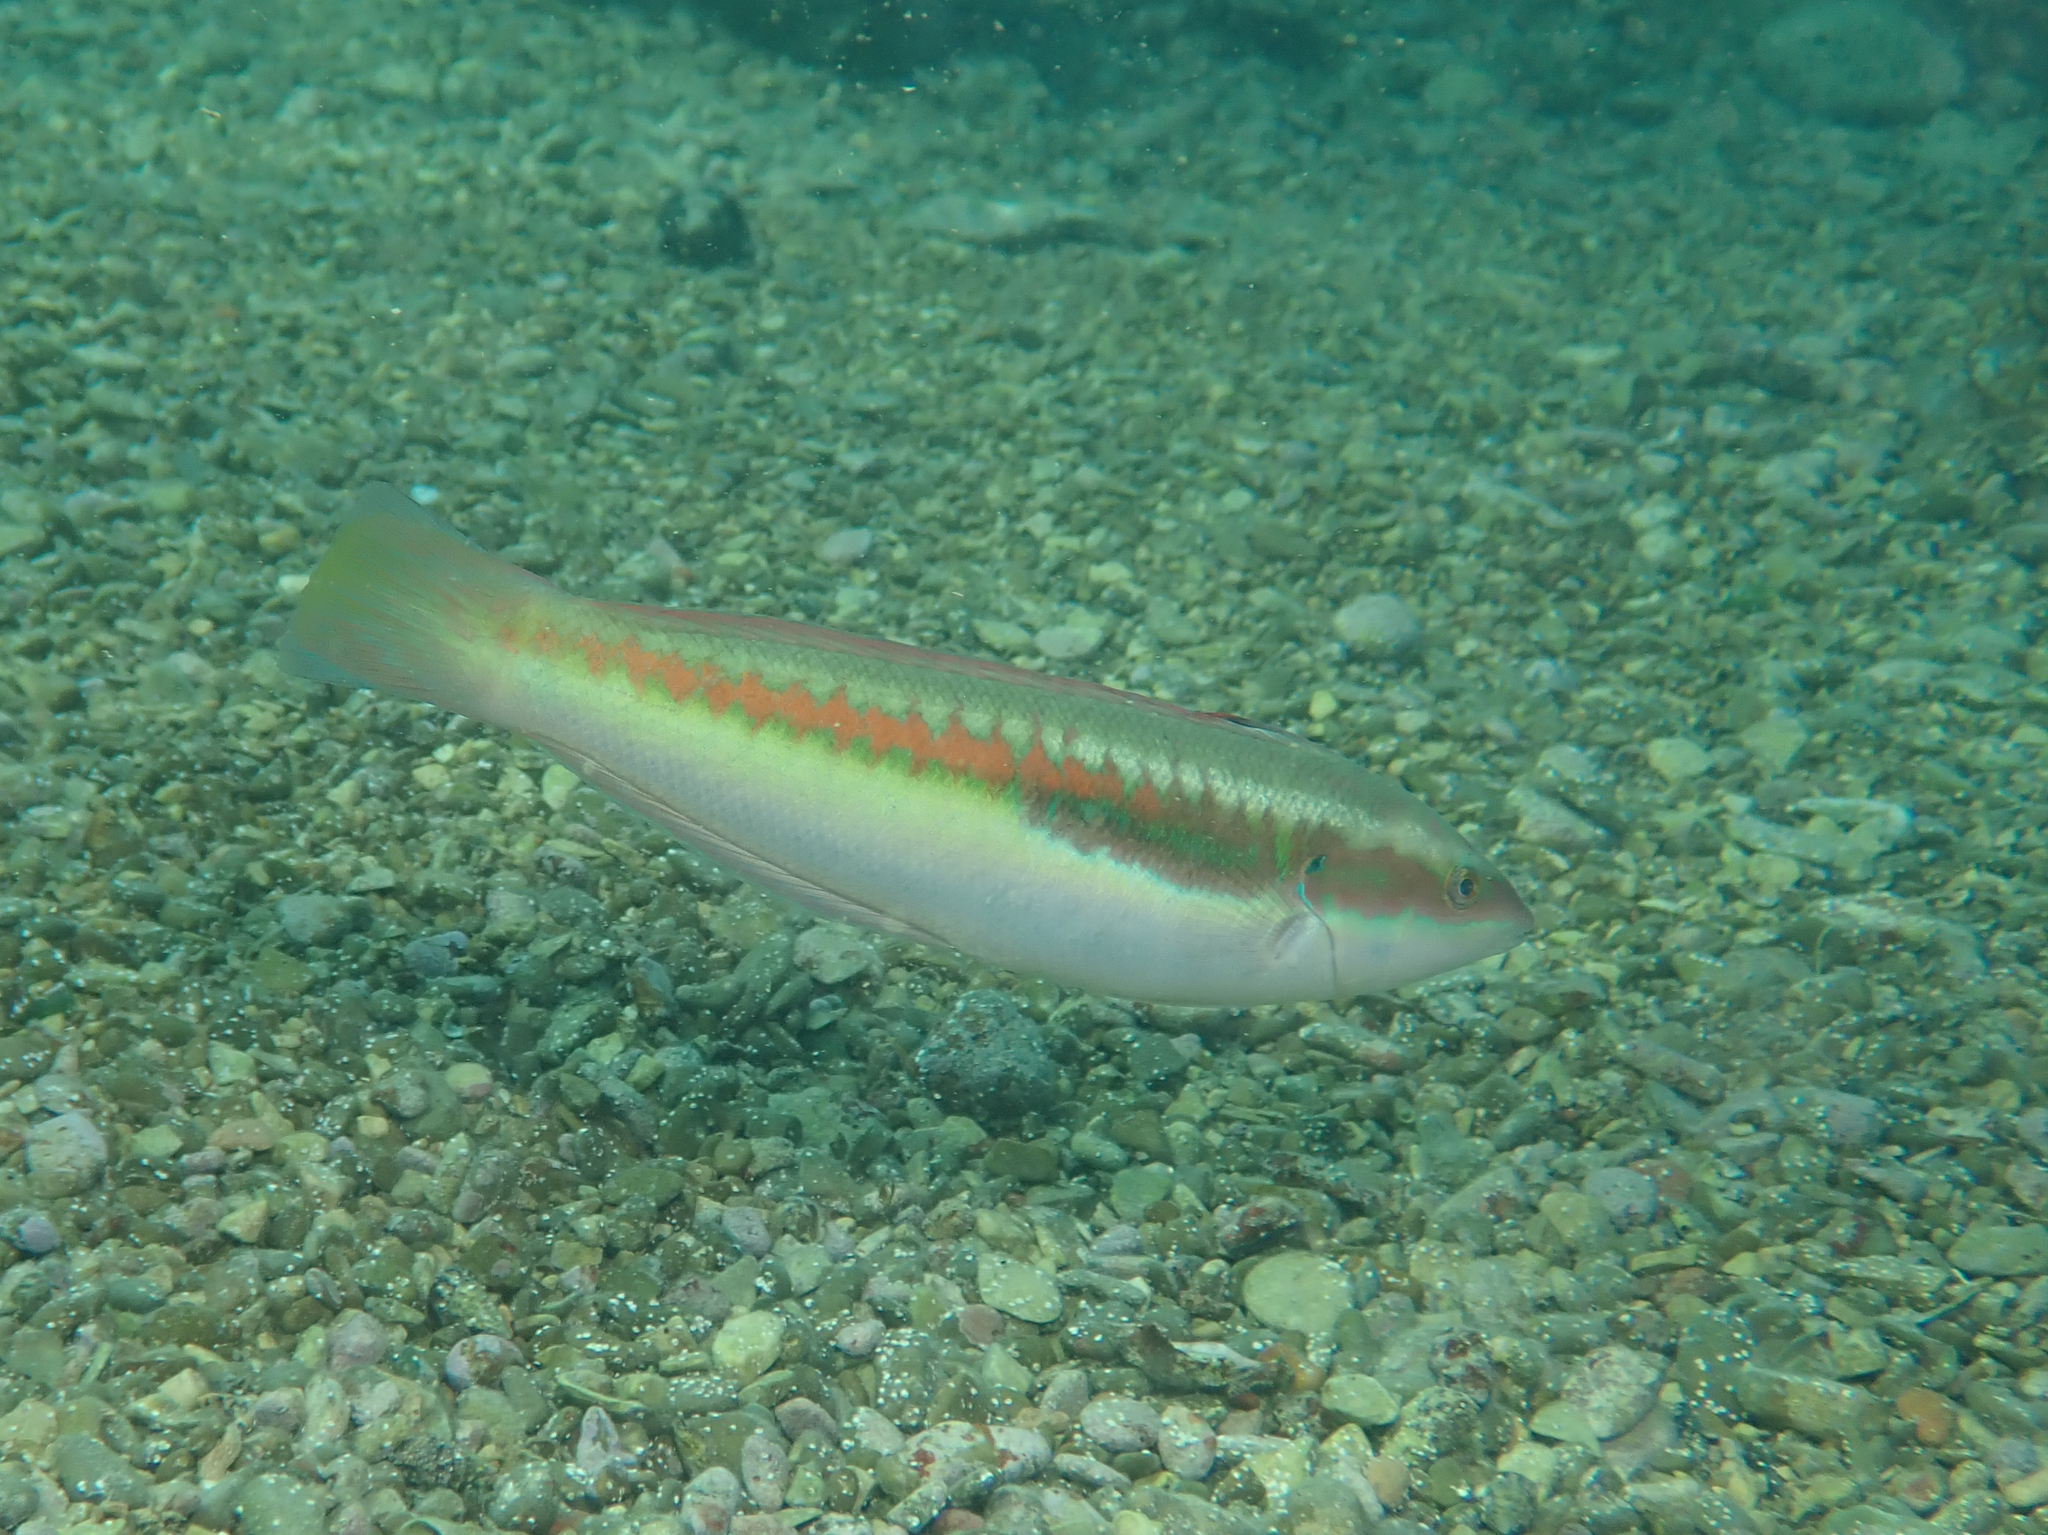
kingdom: Animalia
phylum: Chordata
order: Perciformes
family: Labridae
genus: Coris
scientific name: Coris julis
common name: Rainbow wrasse
